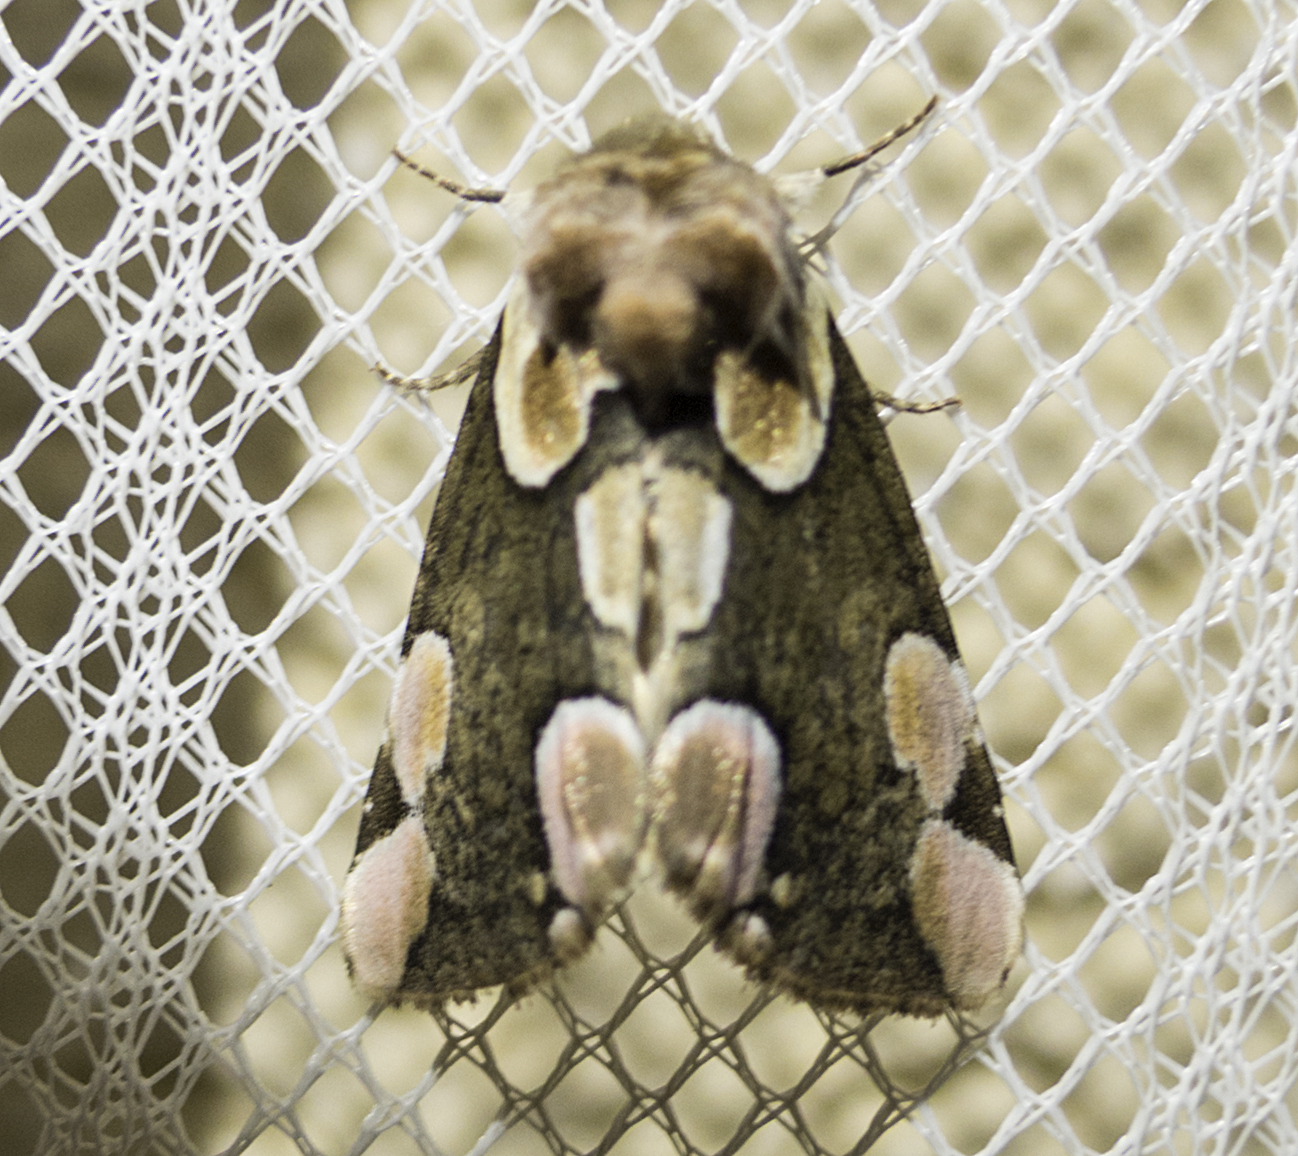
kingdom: Animalia
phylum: Arthropoda
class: Insecta
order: Lepidoptera
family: Drepanidae
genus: Thyatira
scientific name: Thyatira batis
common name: Peach blossom
